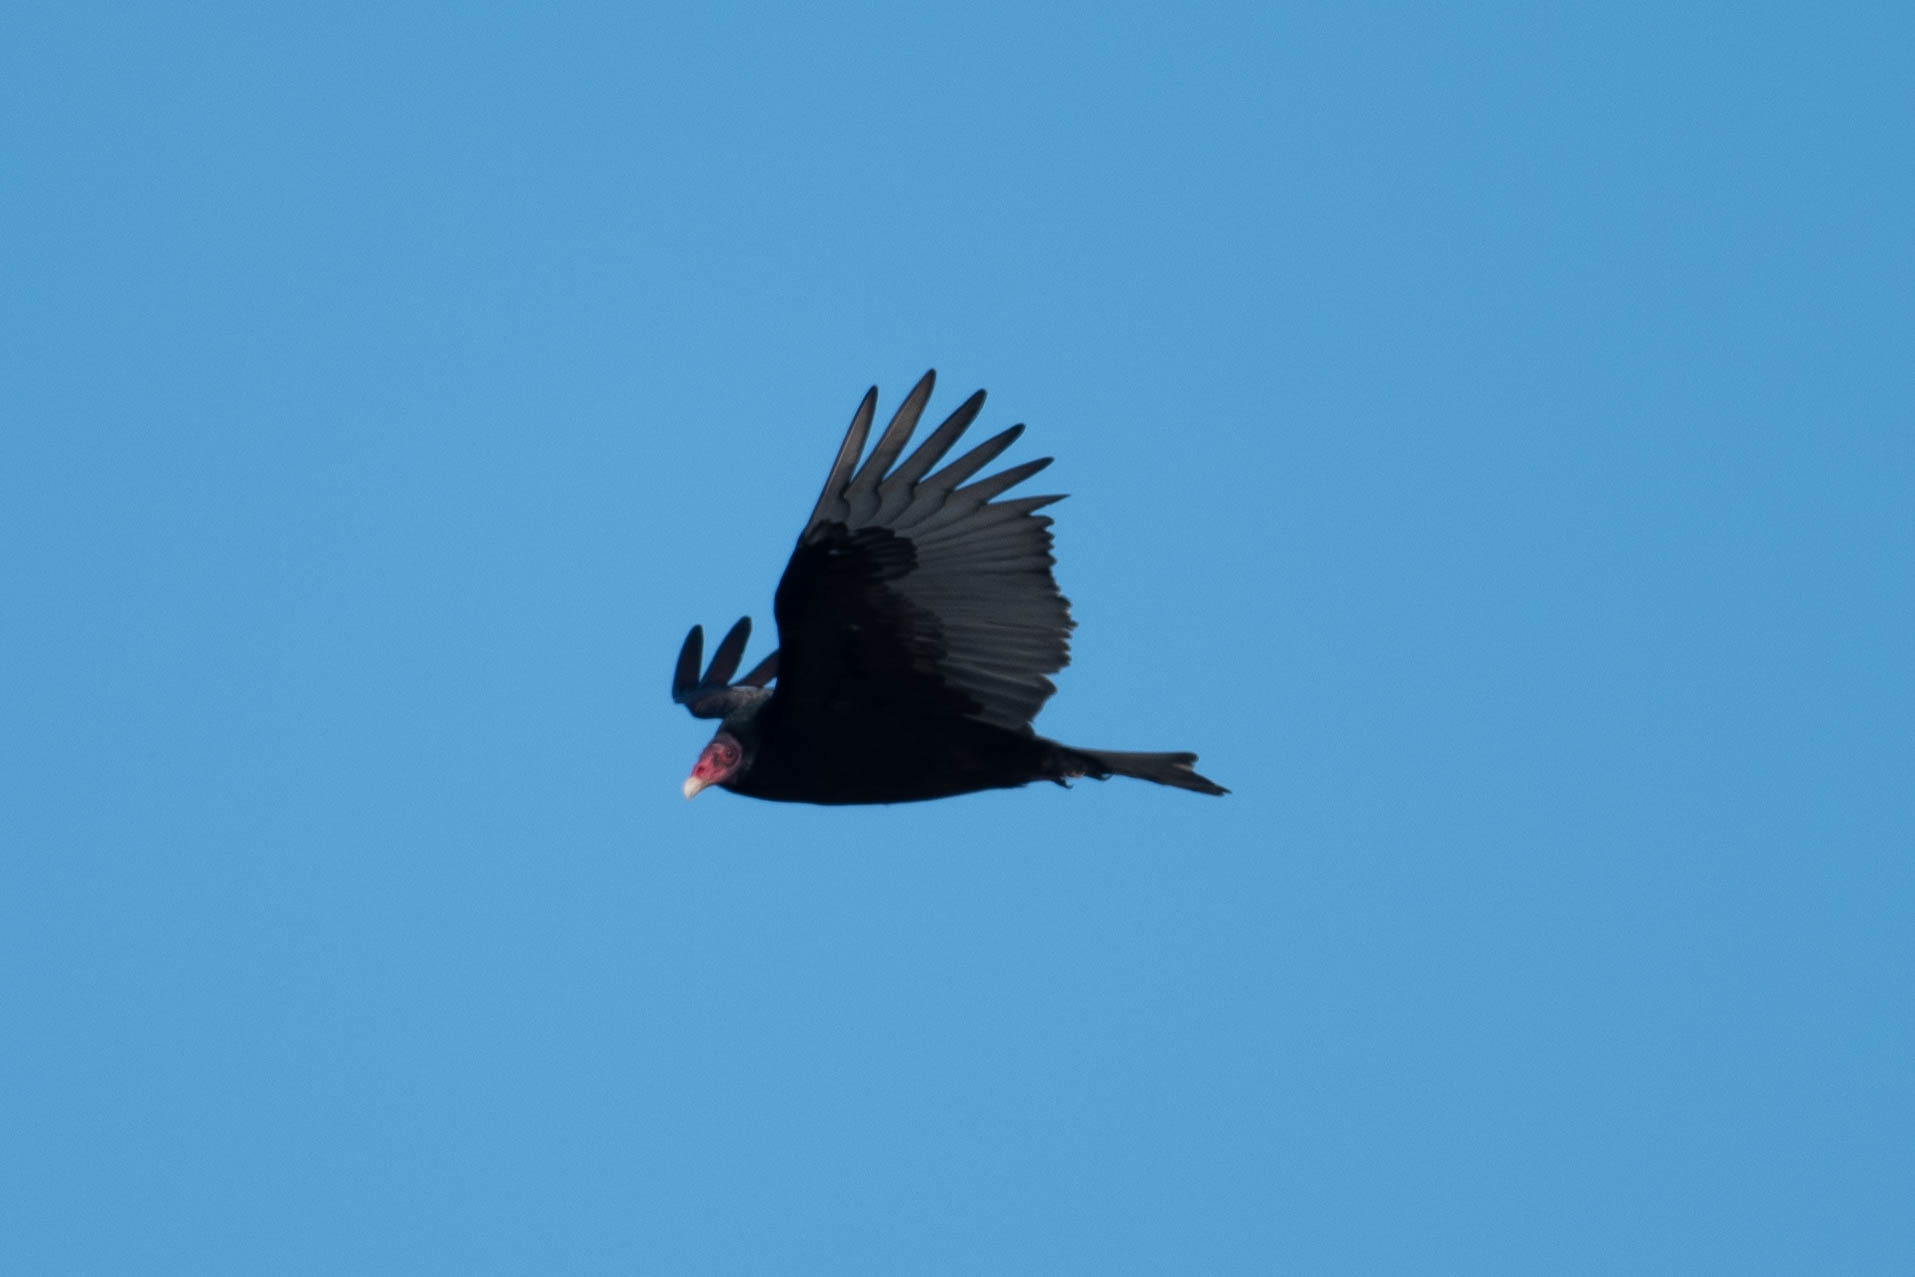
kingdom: Animalia
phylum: Chordata
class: Aves
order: Accipitriformes
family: Cathartidae
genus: Cathartes
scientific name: Cathartes aura
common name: Turkey vulture
